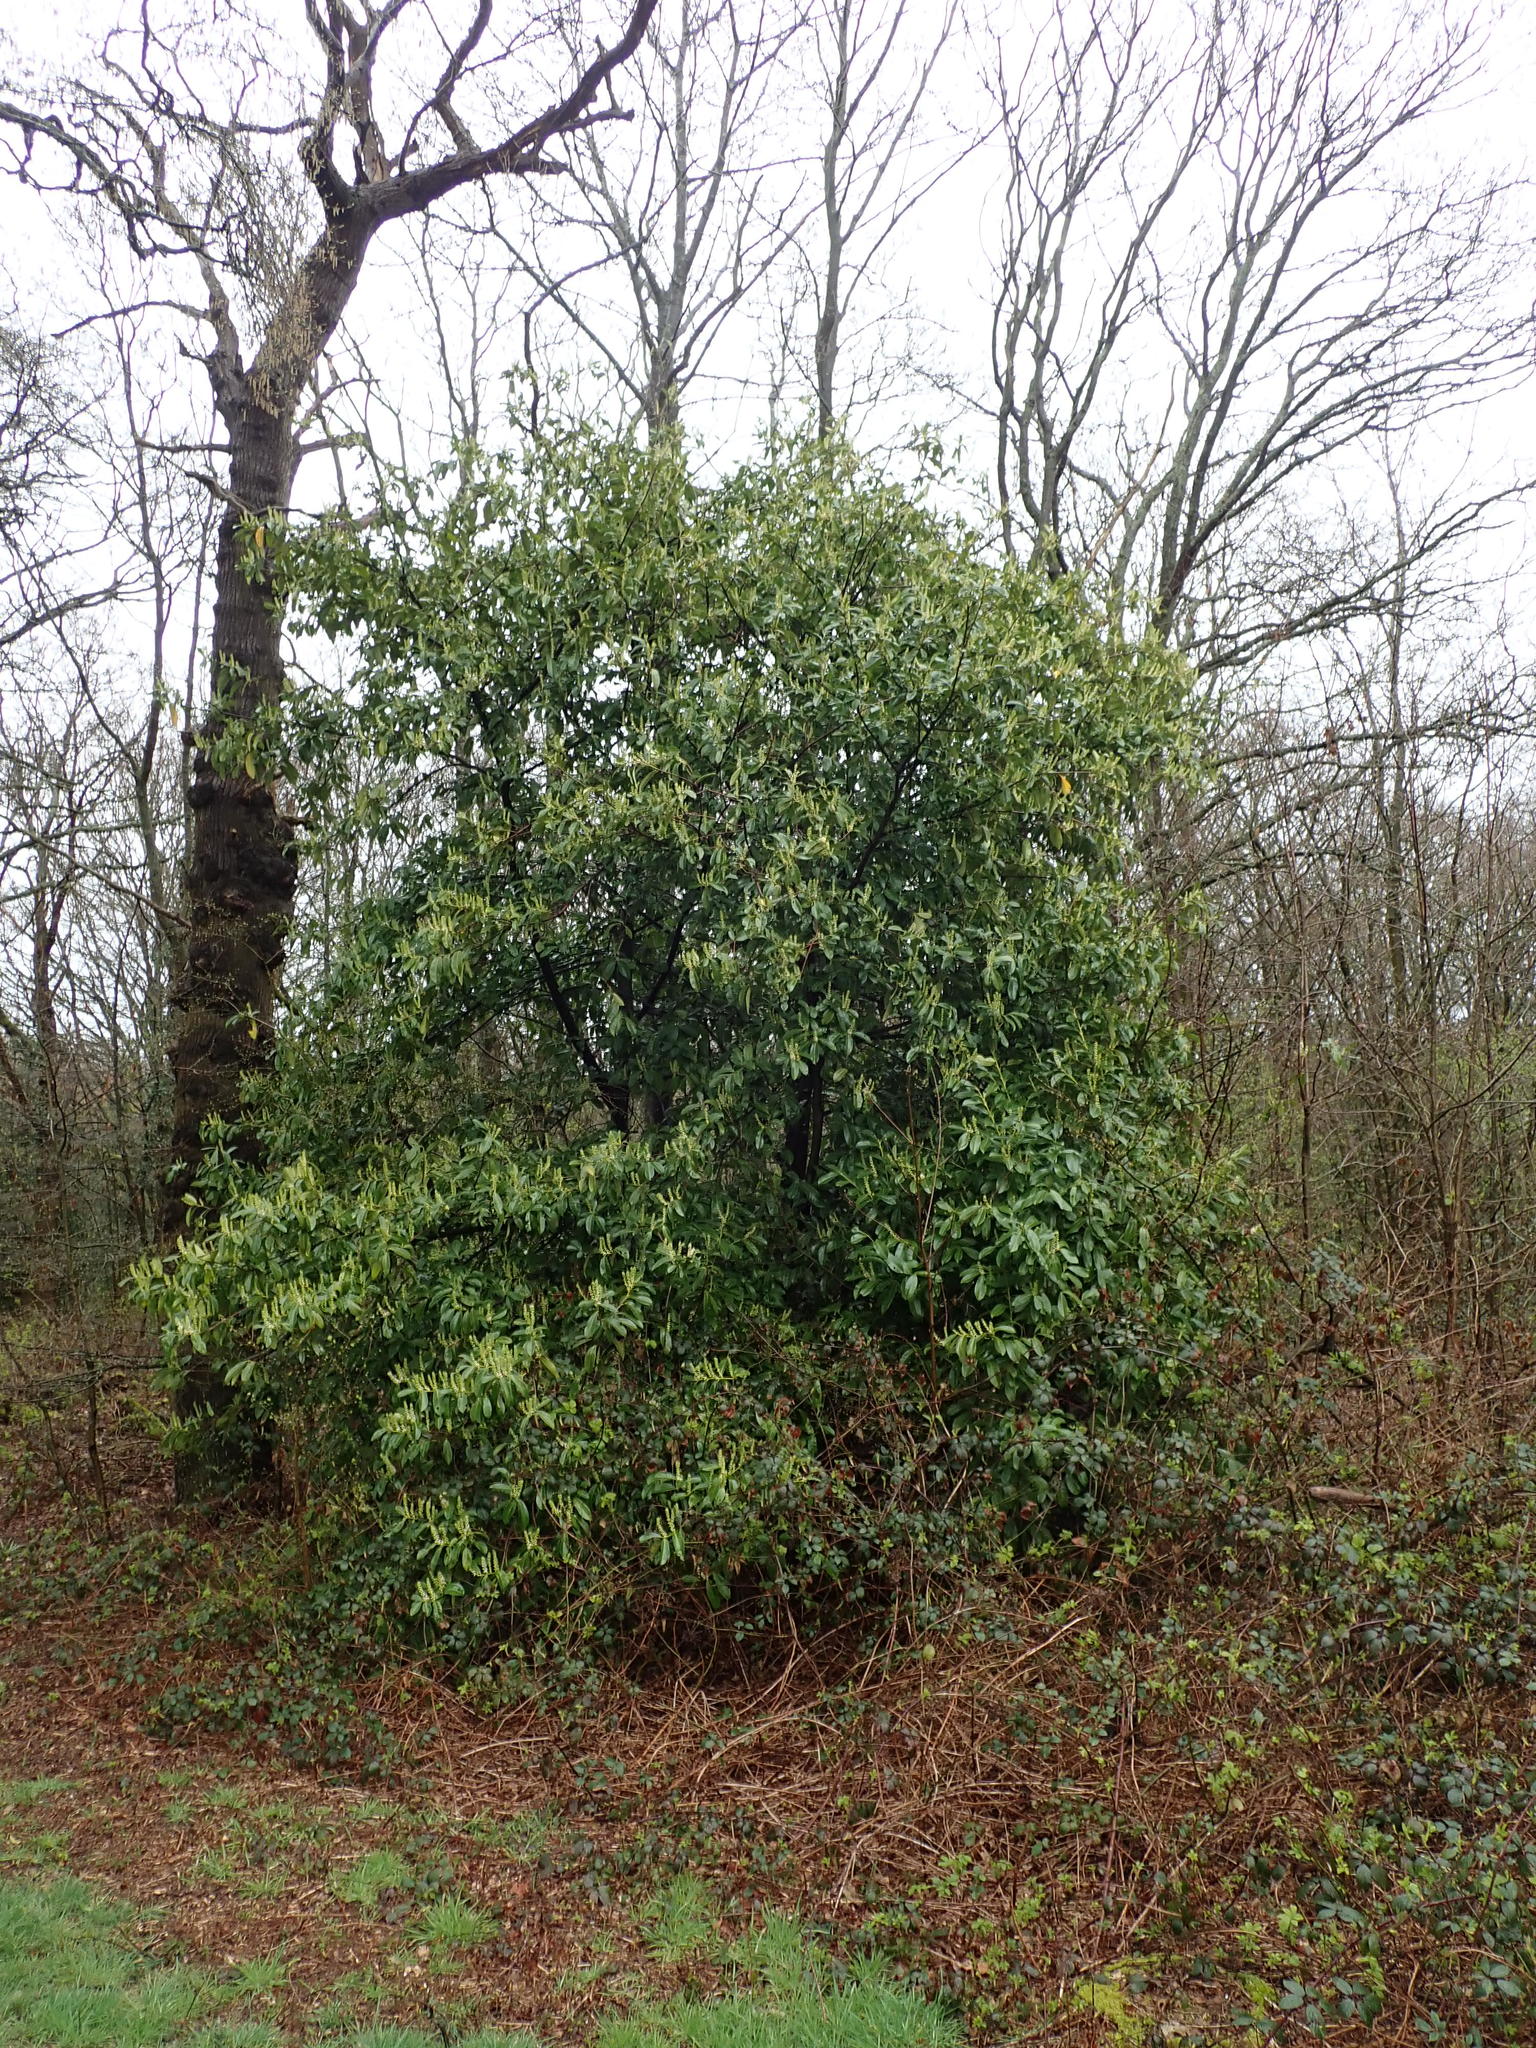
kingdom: Plantae
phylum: Tracheophyta
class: Magnoliopsida
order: Rosales
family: Rosaceae
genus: Prunus
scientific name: Prunus laurocerasus
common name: Cherry laurel
